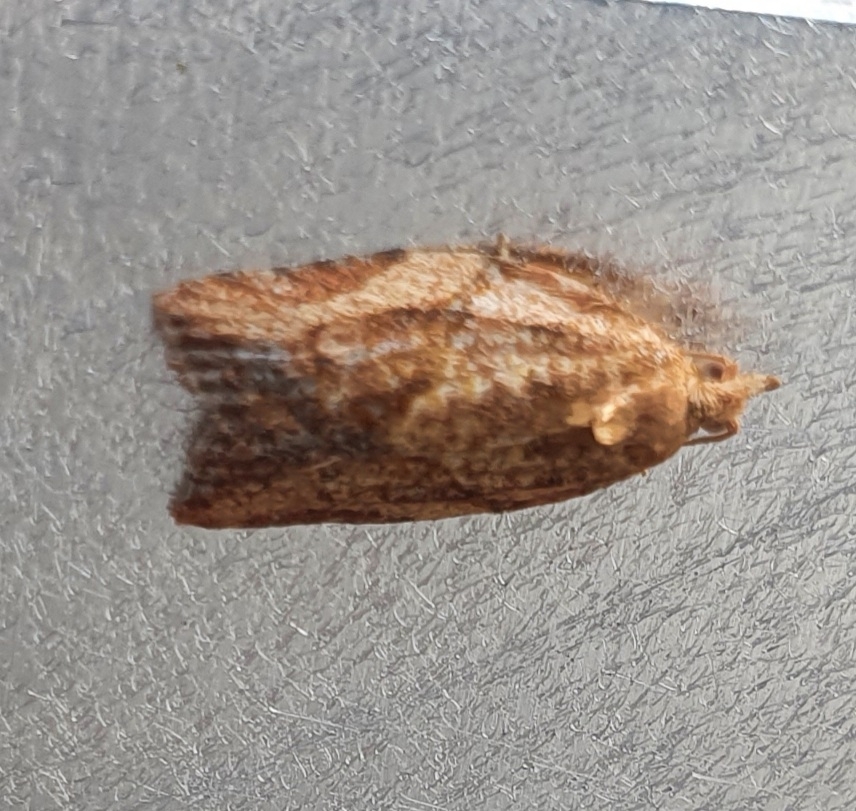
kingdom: Animalia
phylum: Arthropoda
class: Insecta
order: Lepidoptera
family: Tortricidae
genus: Epiphyas
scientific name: Epiphyas postvittana
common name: Light brown apple moth
